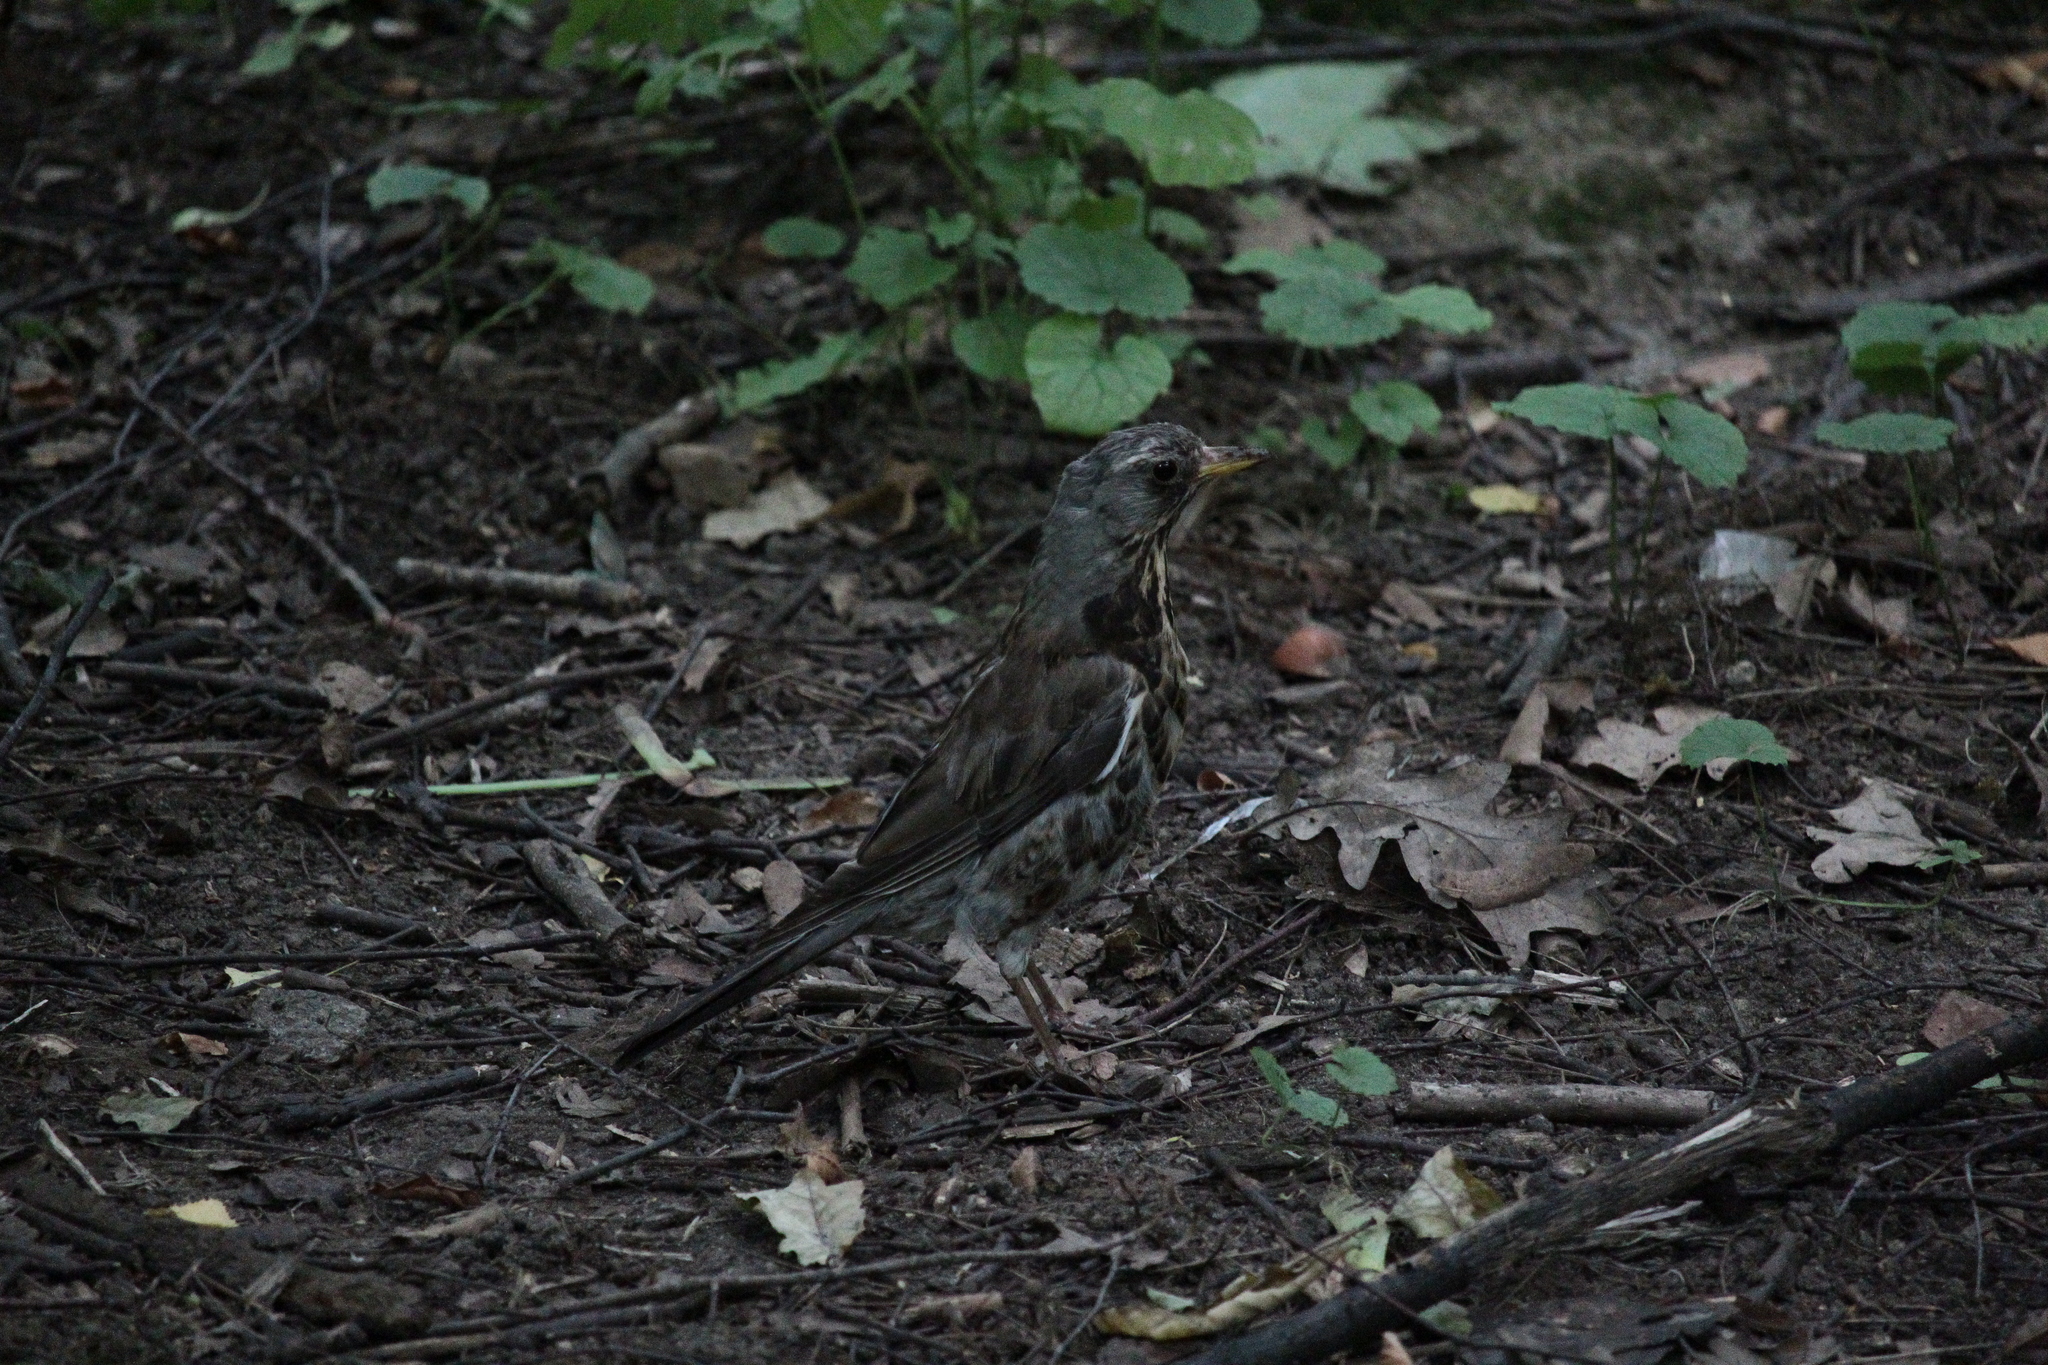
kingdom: Animalia
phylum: Chordata
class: Aves
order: Passeriformes
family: Turdidae
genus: Turdus
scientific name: Turdus pilaris
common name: Fieldfare
